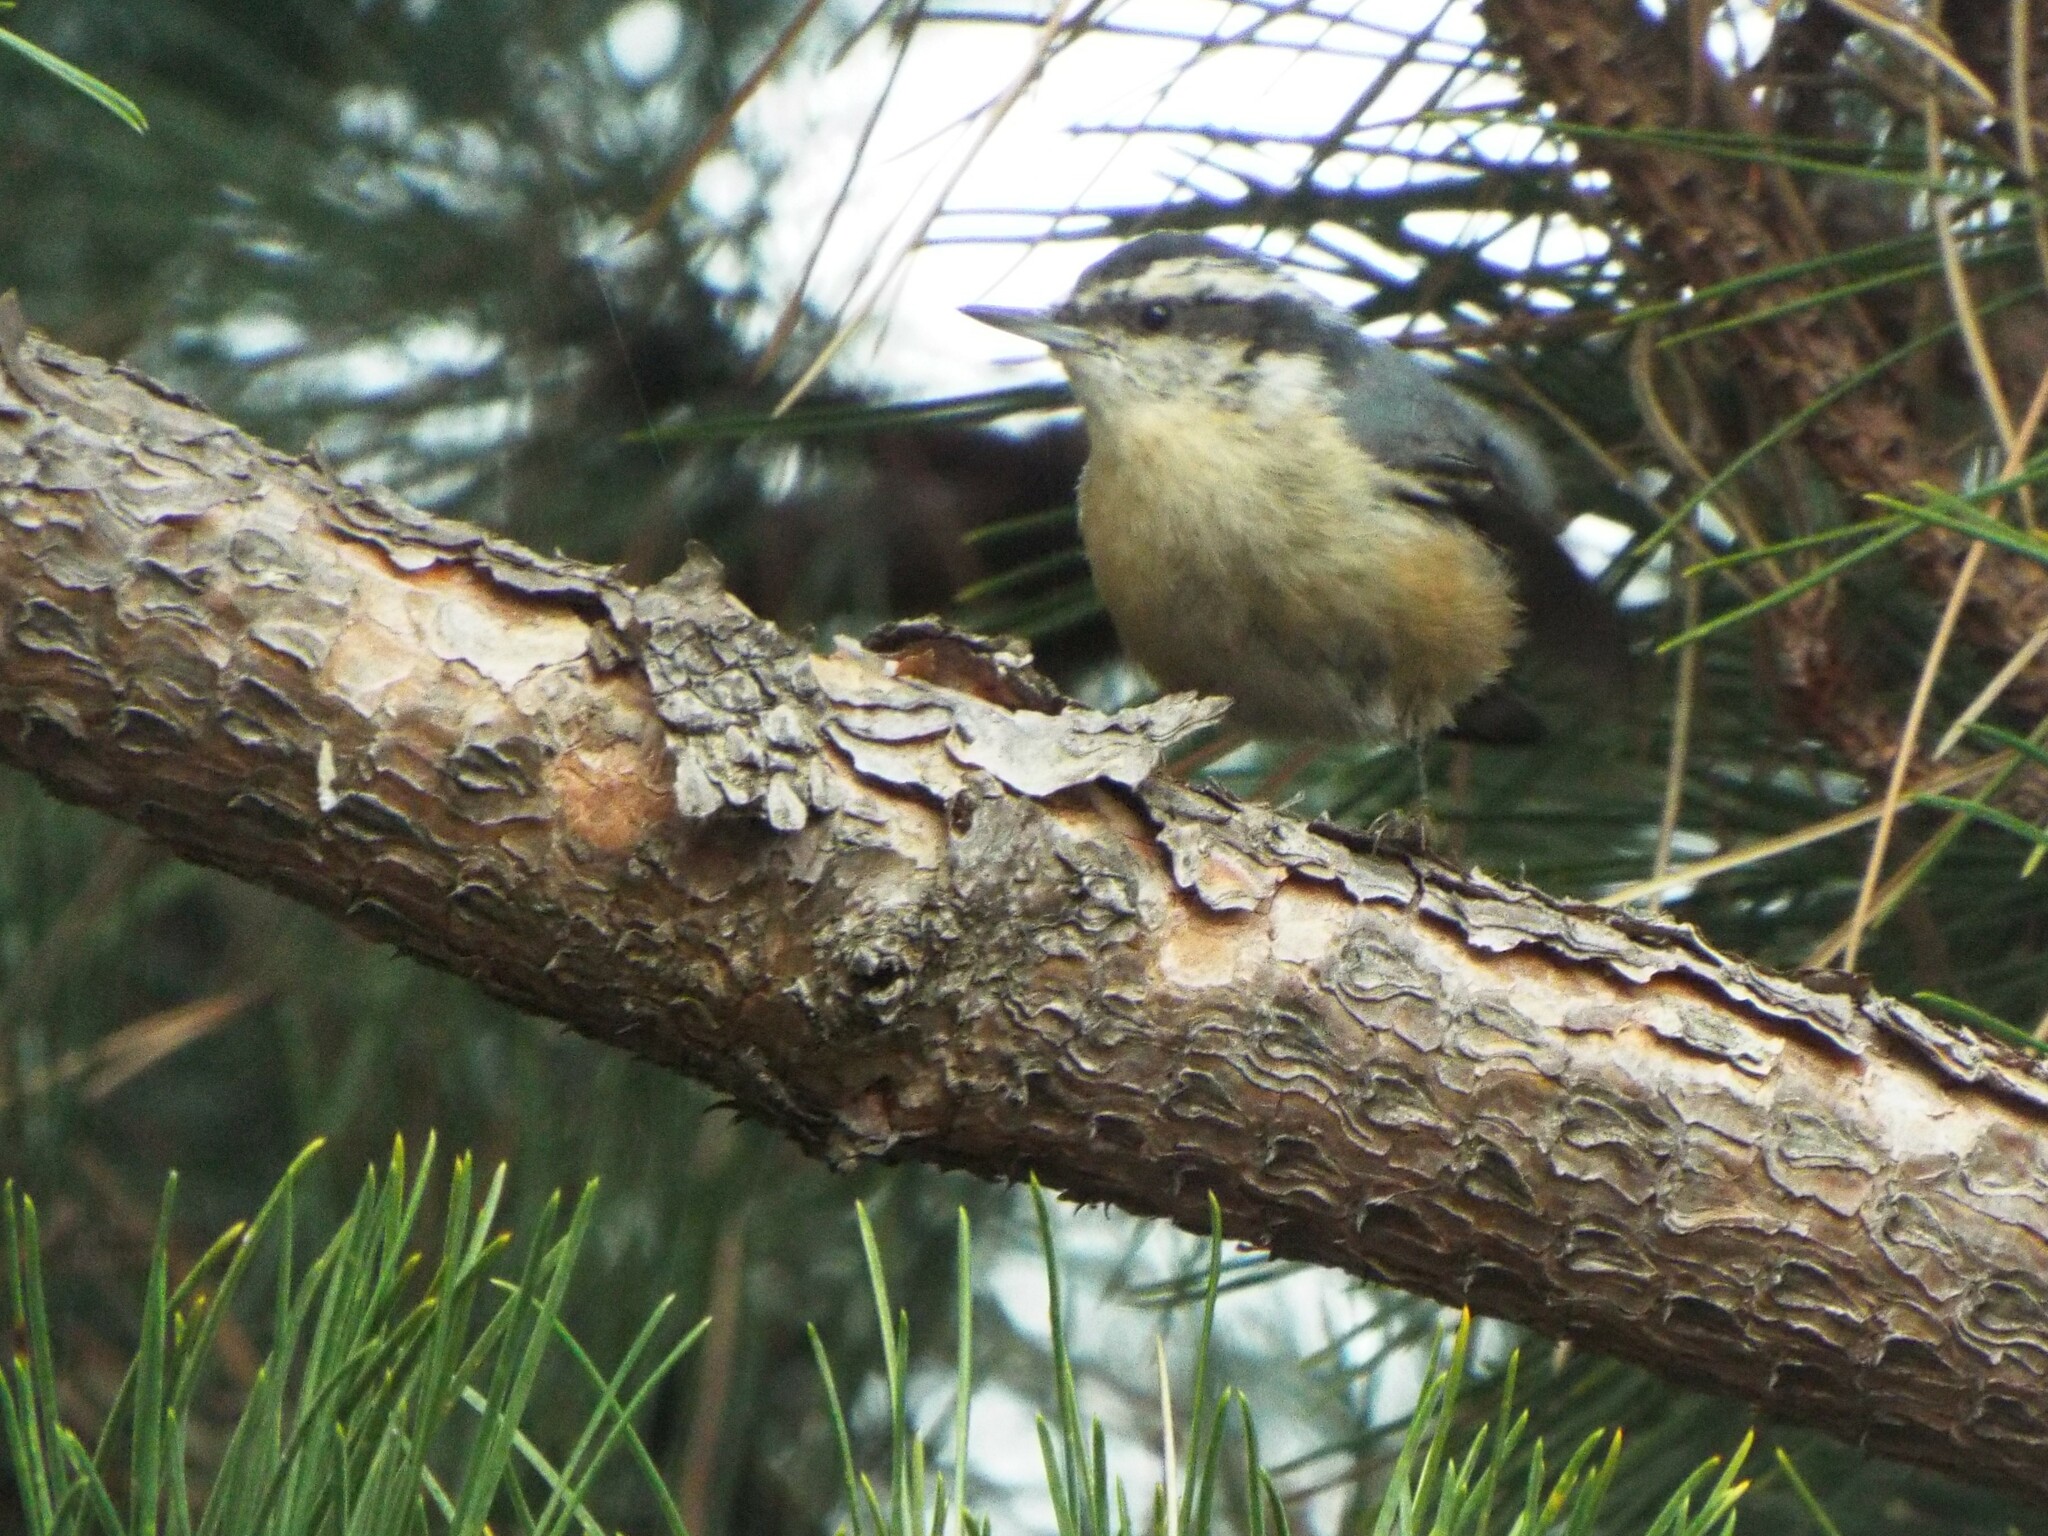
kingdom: Animalia
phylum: Chordata
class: Aves
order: Passeriformes
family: Sittidae
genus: Sitta
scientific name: Sitta canadensis
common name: Red-breasted nuthatch
